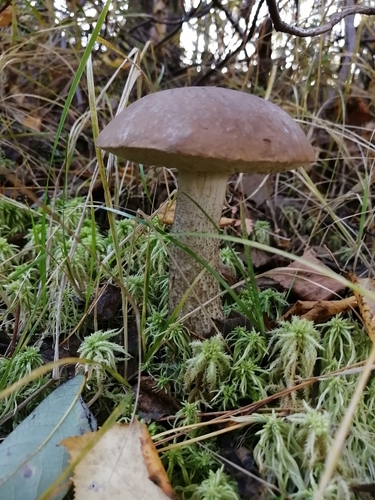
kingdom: Fungi
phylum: Basidiomycota
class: Agaricomycetes
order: Boletales
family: Boletaceae
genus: Leccinum
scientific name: Leccinum
